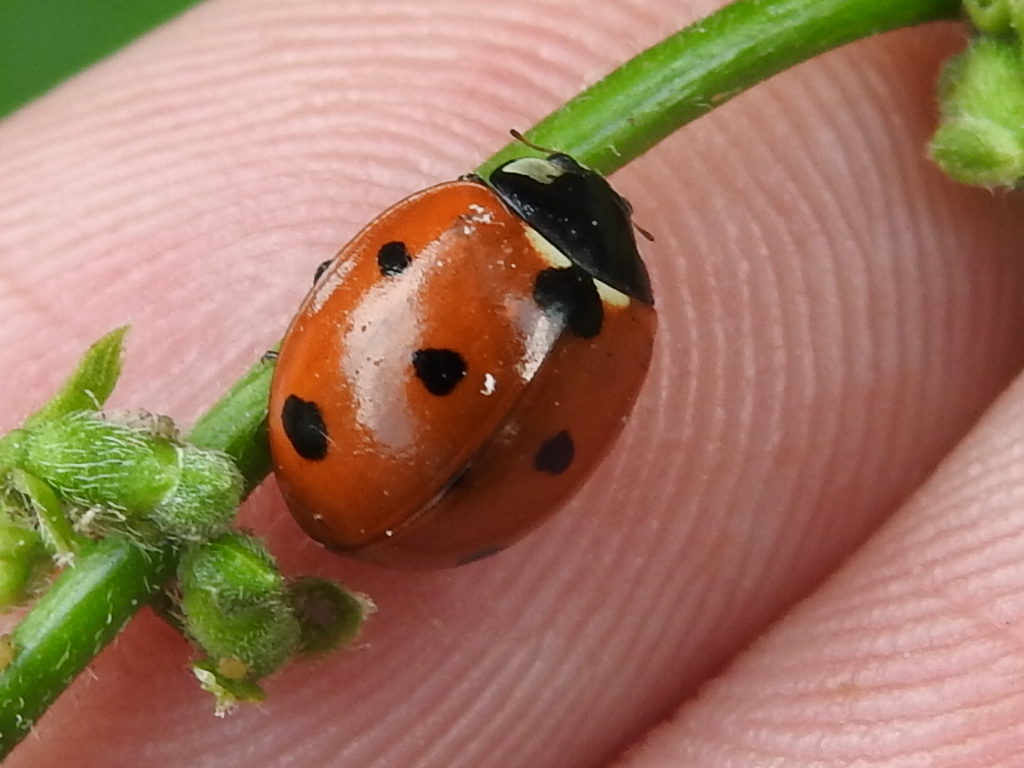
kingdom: Animalia
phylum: Arthropoda
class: Insecta
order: Coleoptera
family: Coccinellidae
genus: Coccinella
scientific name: Coccinella septempunctata
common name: Sevenspotted lady beetle
